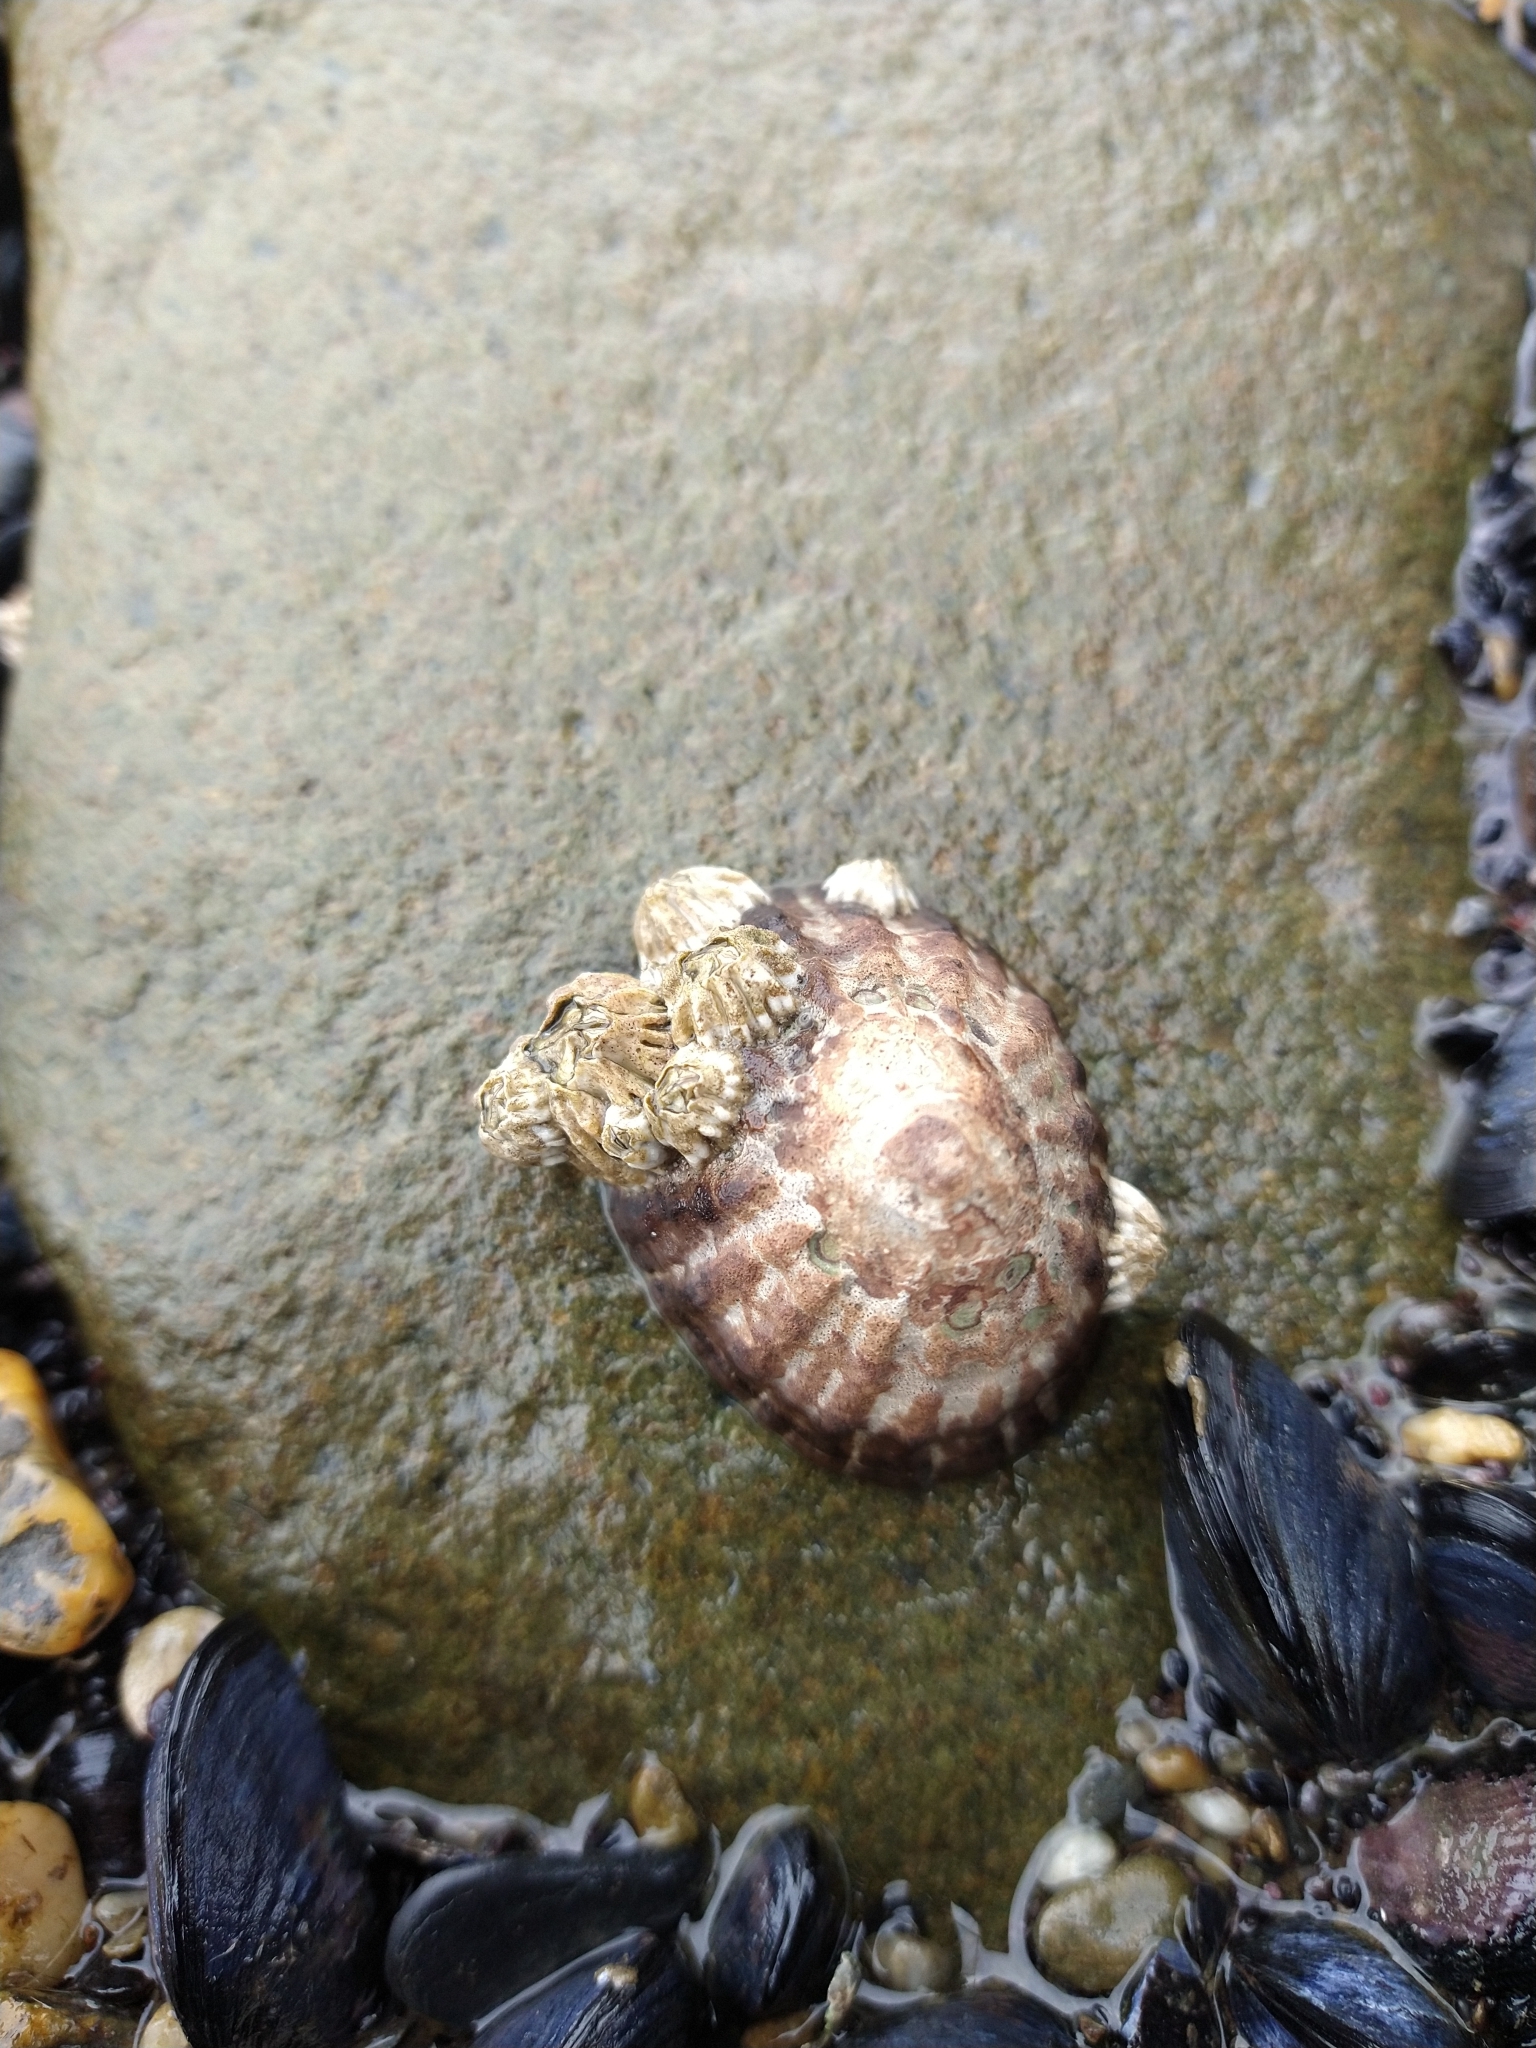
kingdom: Animalia
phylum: Mollusca
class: Gastropoda
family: Nacellidae
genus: Nacella
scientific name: Nacella magellanica
